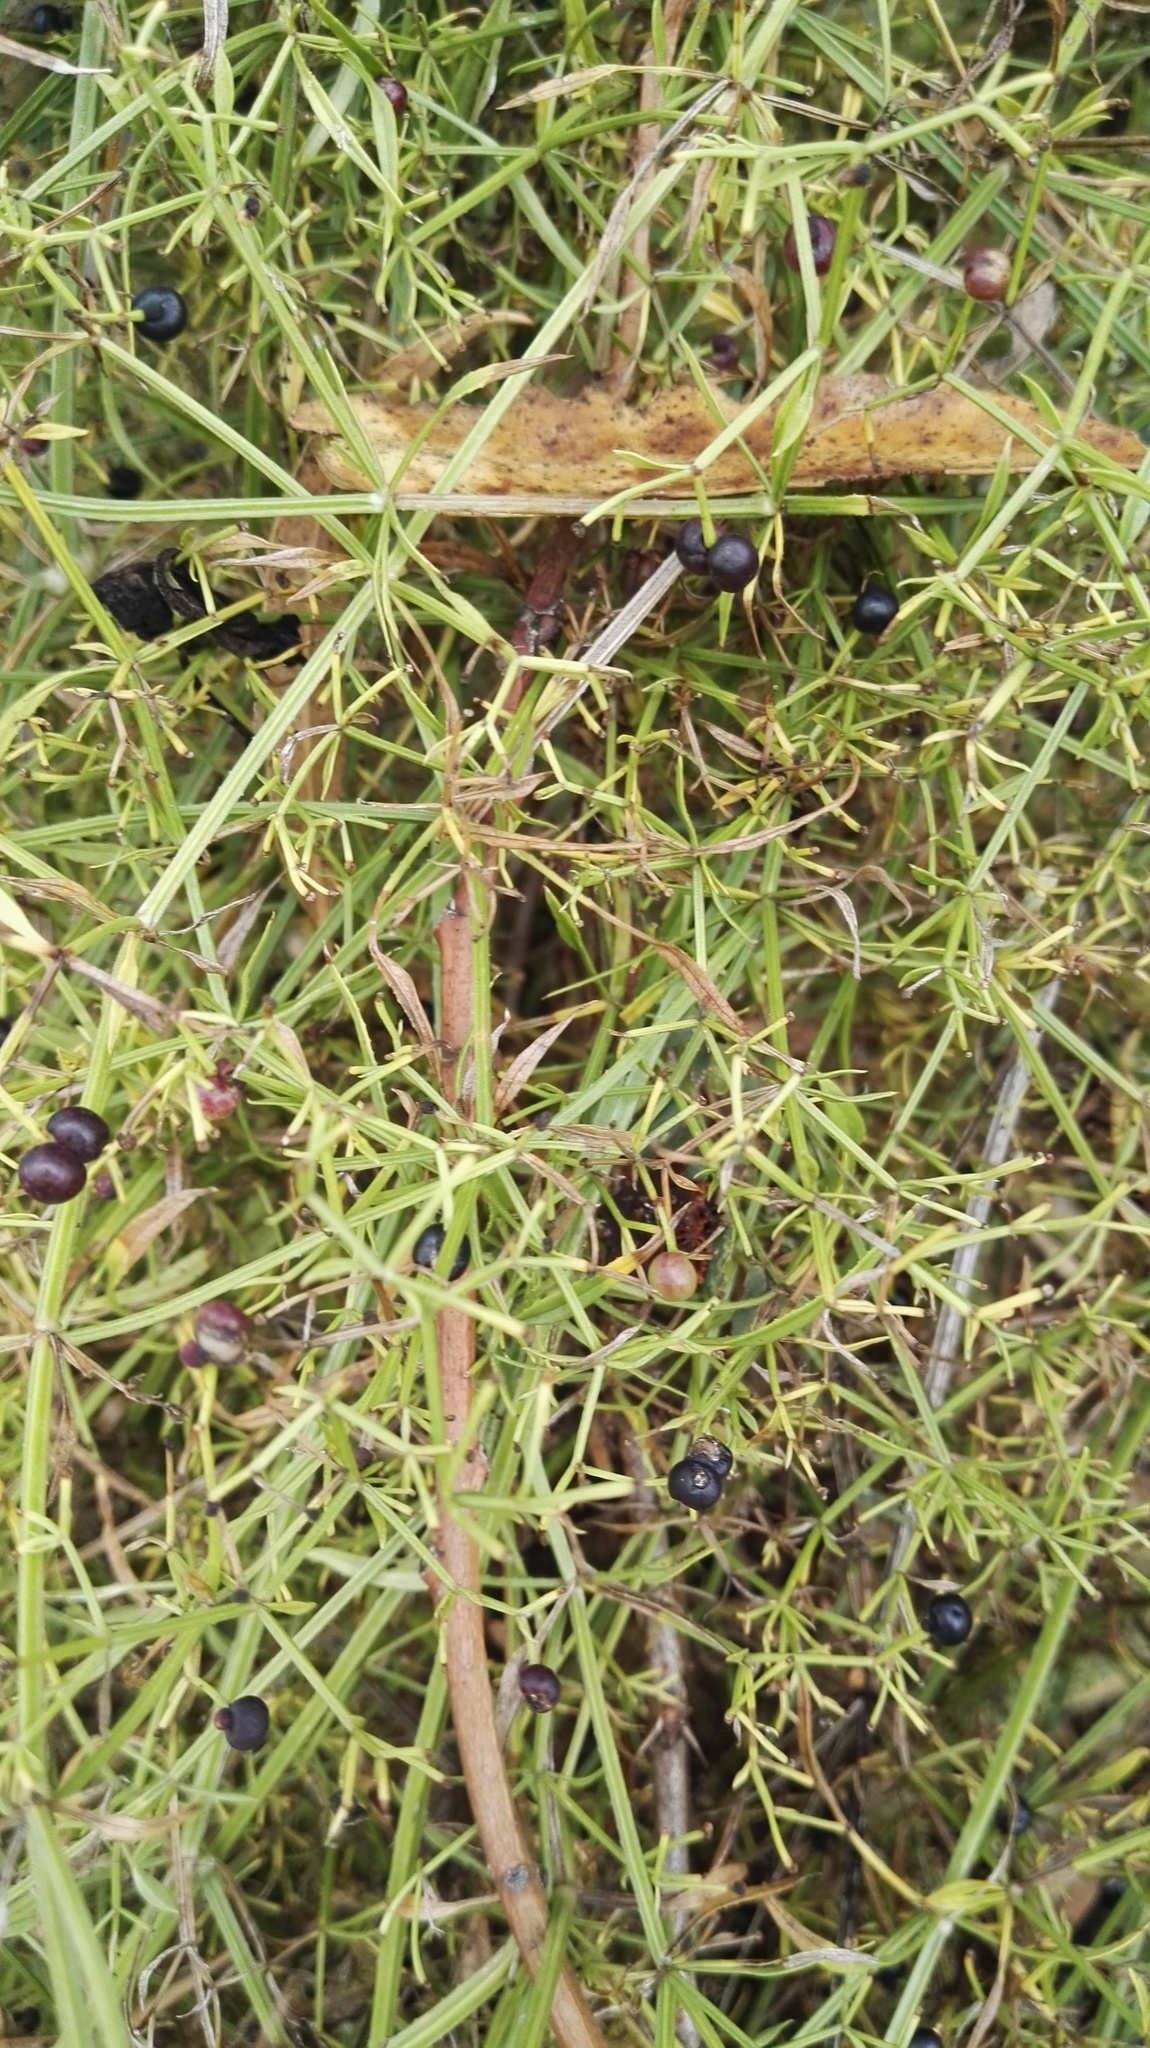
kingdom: Plantae
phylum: Tracheophyta
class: Magnoliopsida
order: Gentianales
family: Rubiaceae
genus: Rubia
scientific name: Rubia horrida
